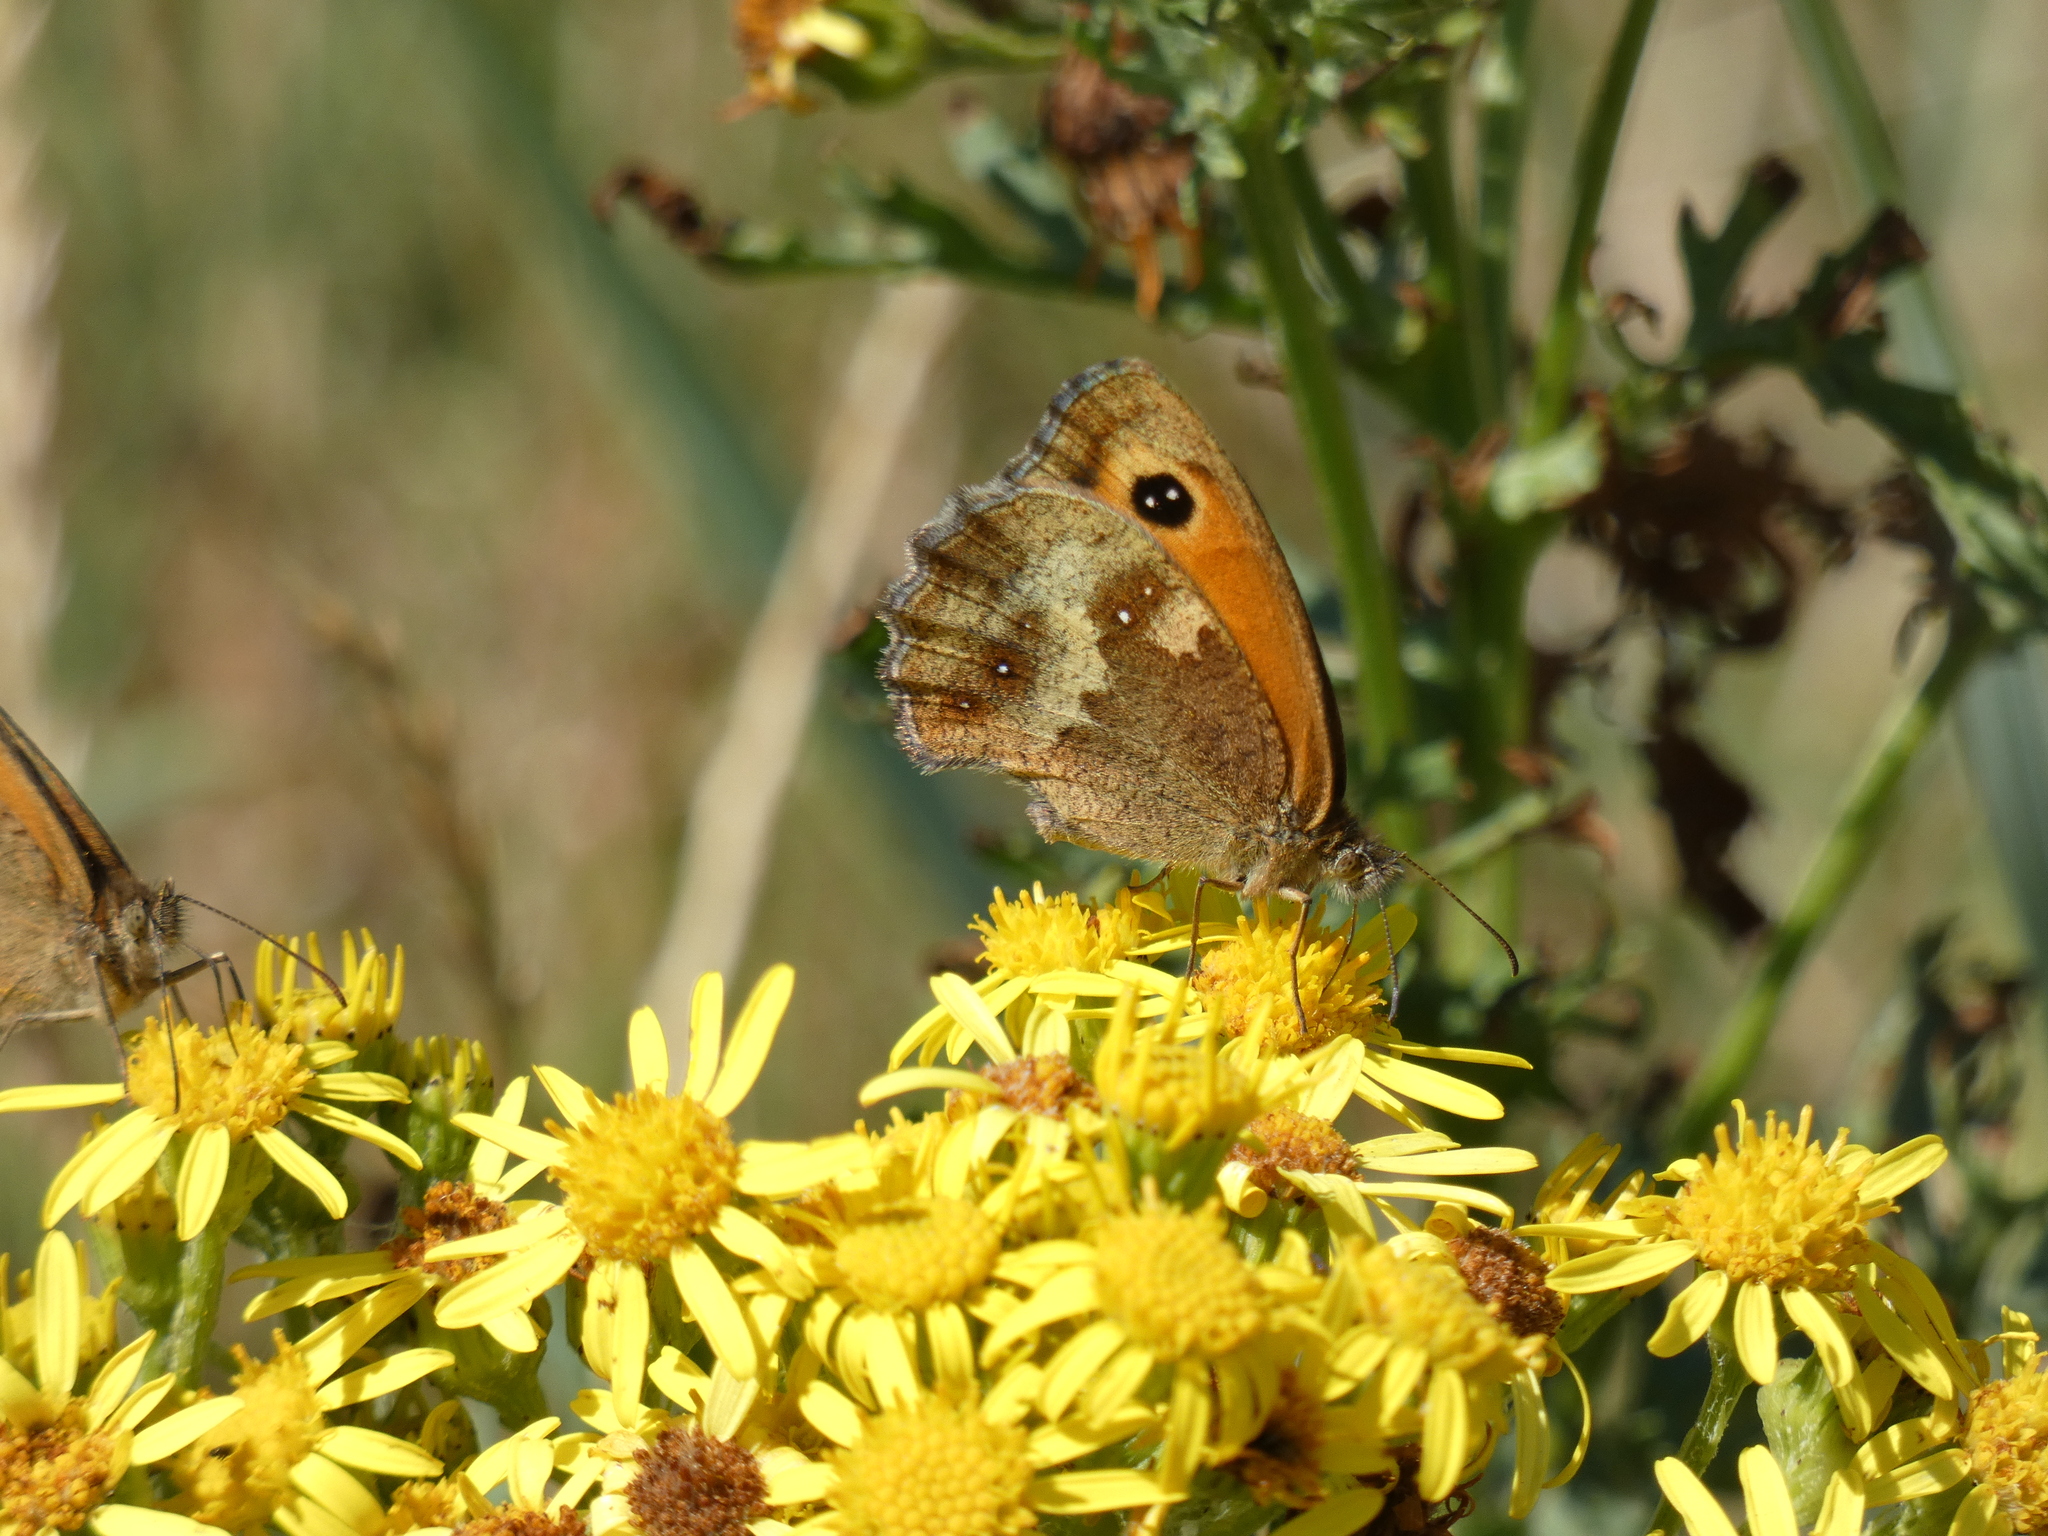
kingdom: Animalia
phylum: Arthropoda
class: Insecta
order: Lepidoptera
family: Nymphalidae
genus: Pyronia
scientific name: Pyronia tithonus
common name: Gatekeeper
